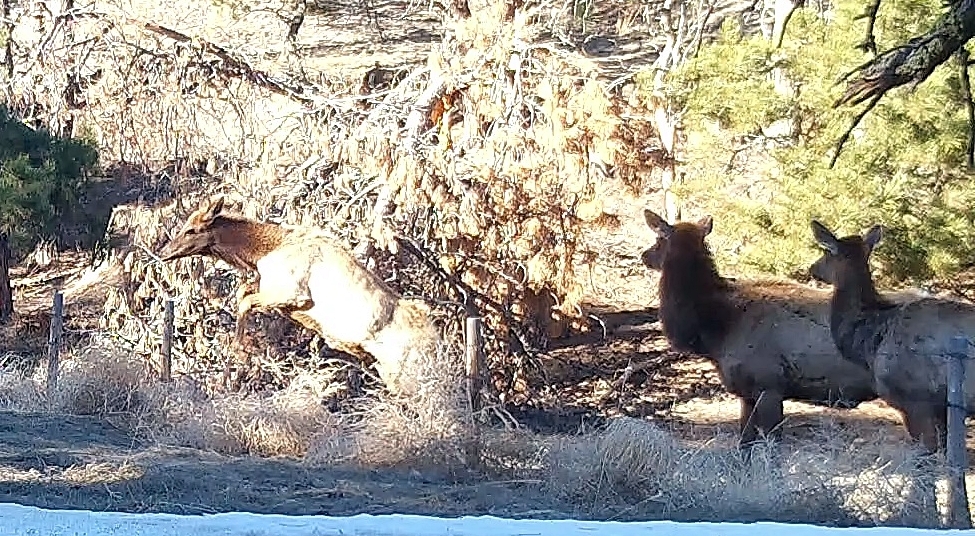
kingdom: Animalia
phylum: Chordata
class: Mammalia
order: Artiodactyla
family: Cervidae
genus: Cervus
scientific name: Cervus elaphus
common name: Red deer
